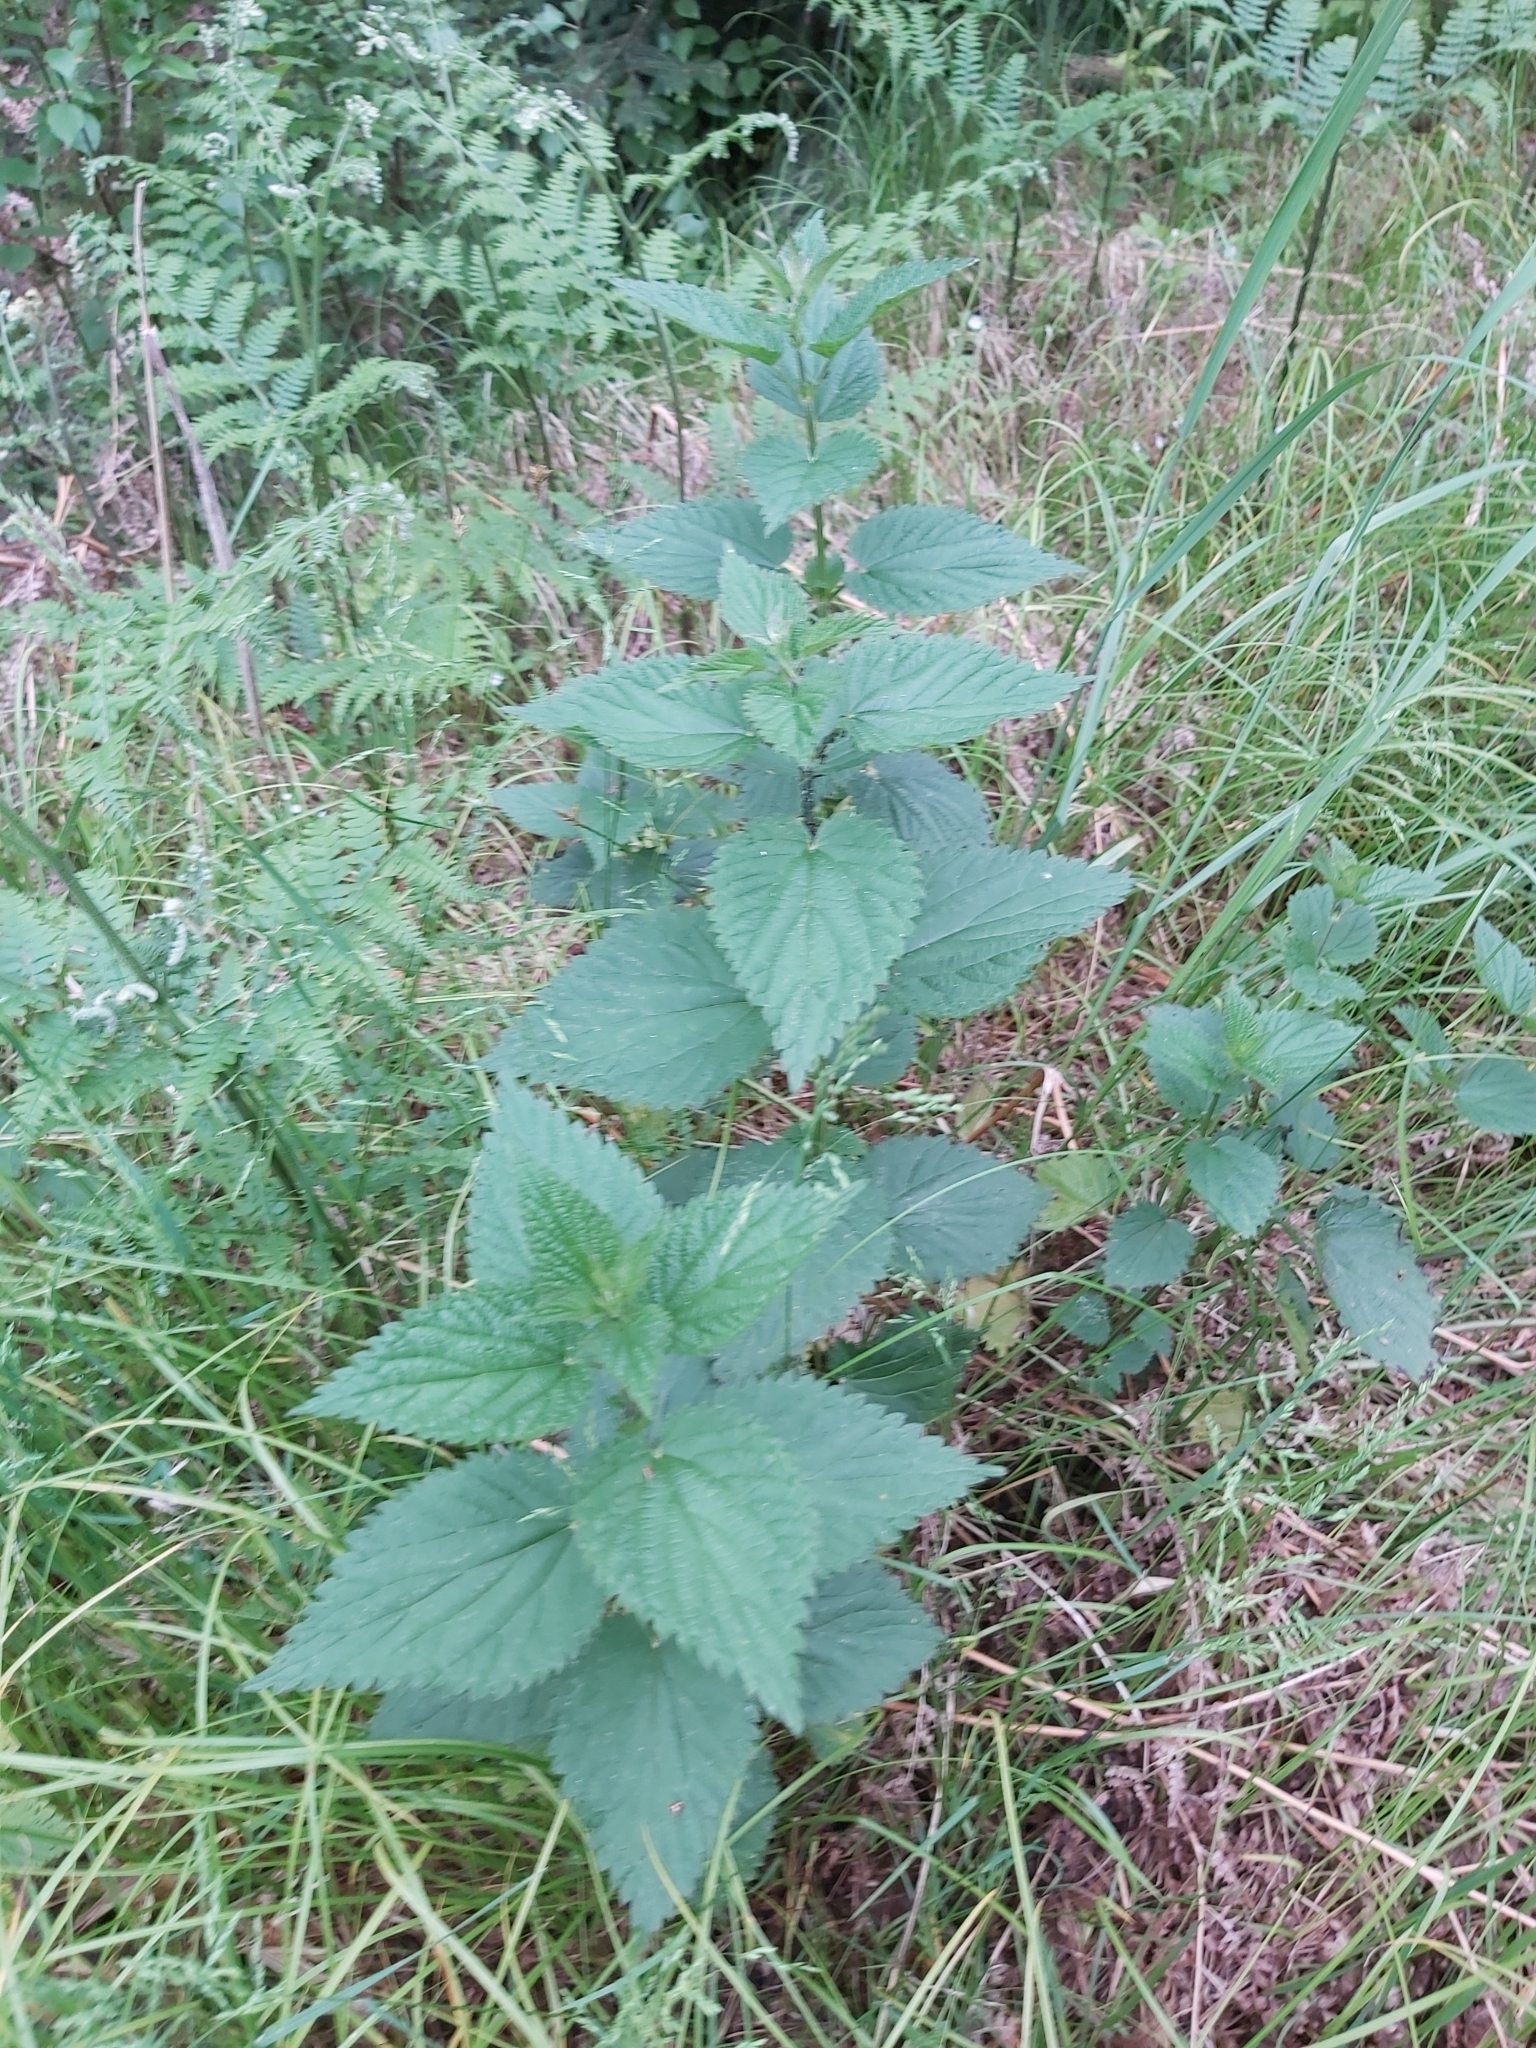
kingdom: Plantae
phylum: Tracheophyta
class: Magnoliopsida
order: Rosales
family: Urticaceae
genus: Urtica
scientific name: Urtica dioica
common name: Common nettle
